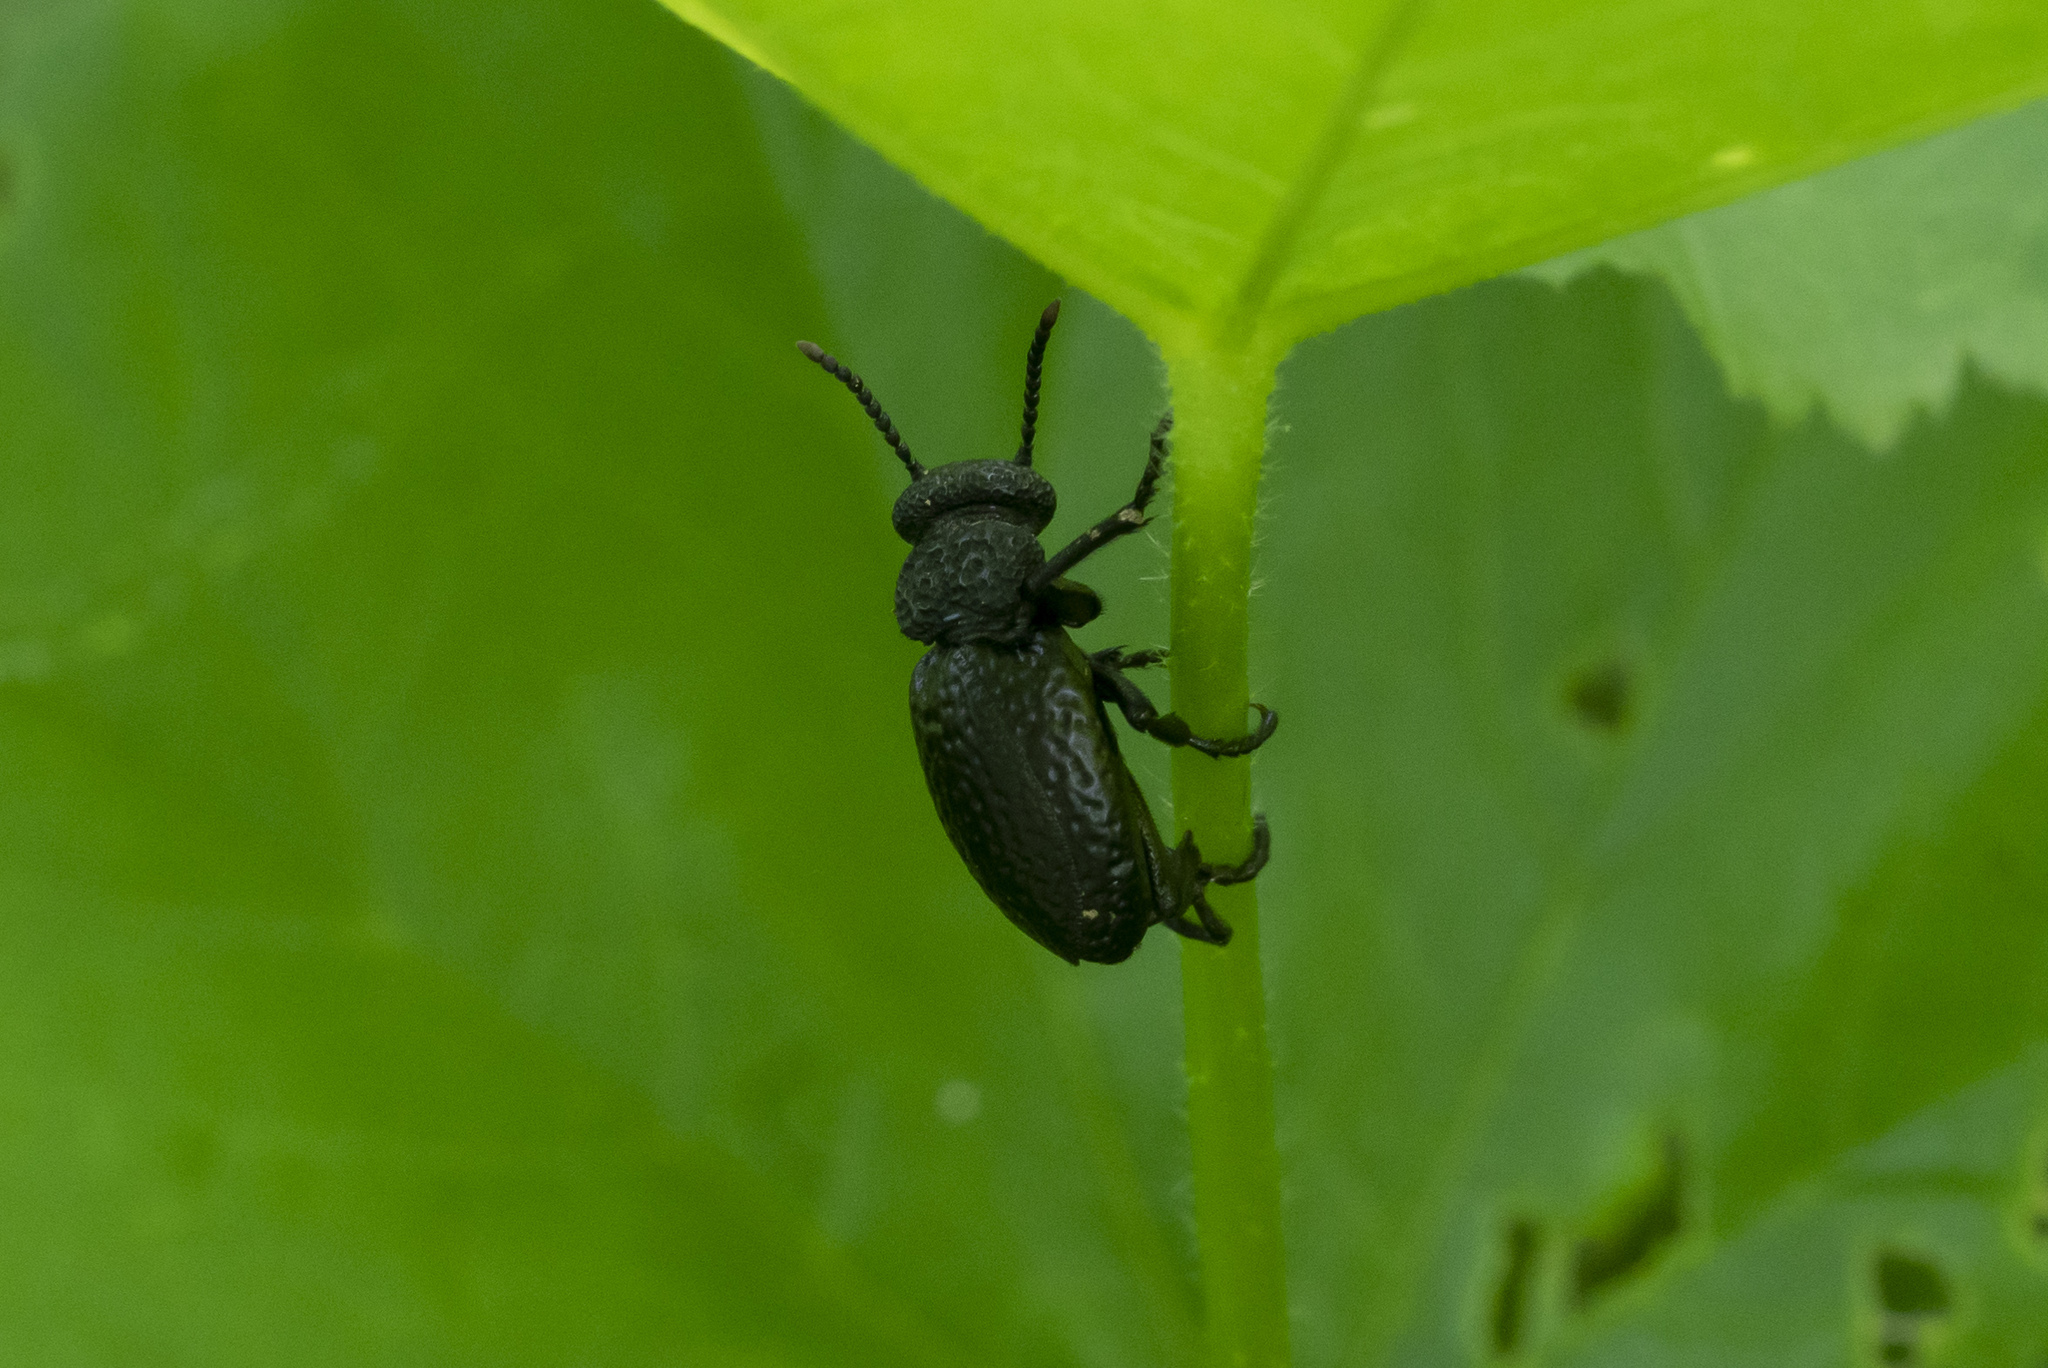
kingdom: Animalia
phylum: Arthropoda
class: Insecta
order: Coleoptera
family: Meloidae
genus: Meloe
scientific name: Meloe tuccius
